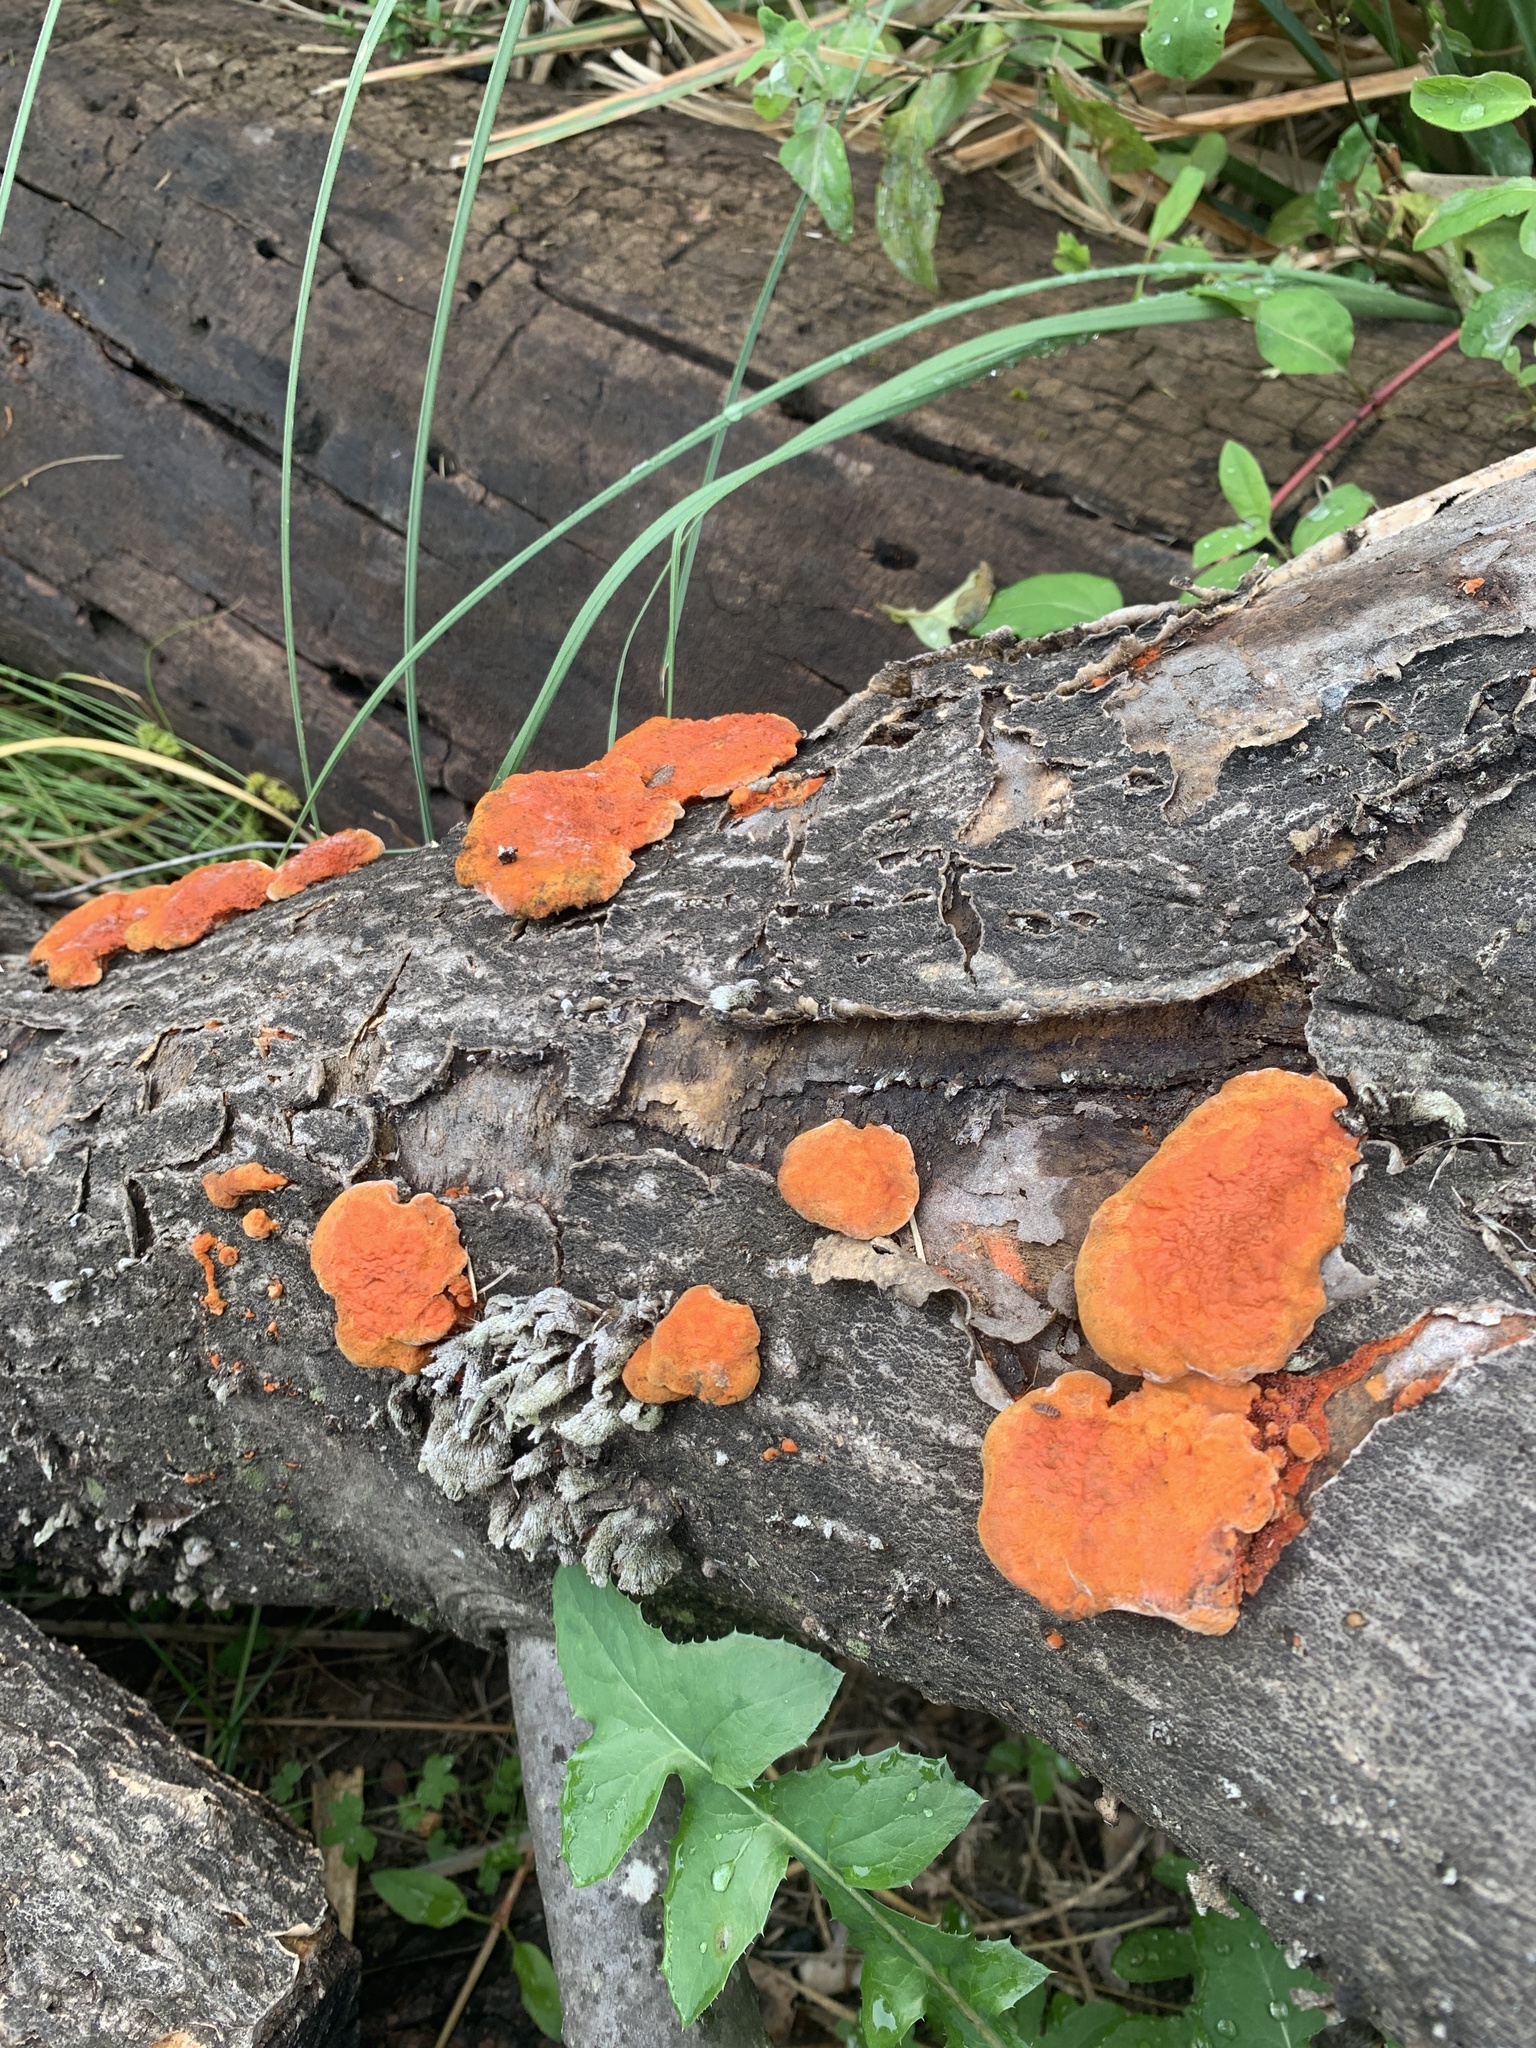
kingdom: Fungi
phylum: Basidiomycota
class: Agaricomycetes
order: Polyporales
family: Polyporaceae
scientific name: Polyporaceae
